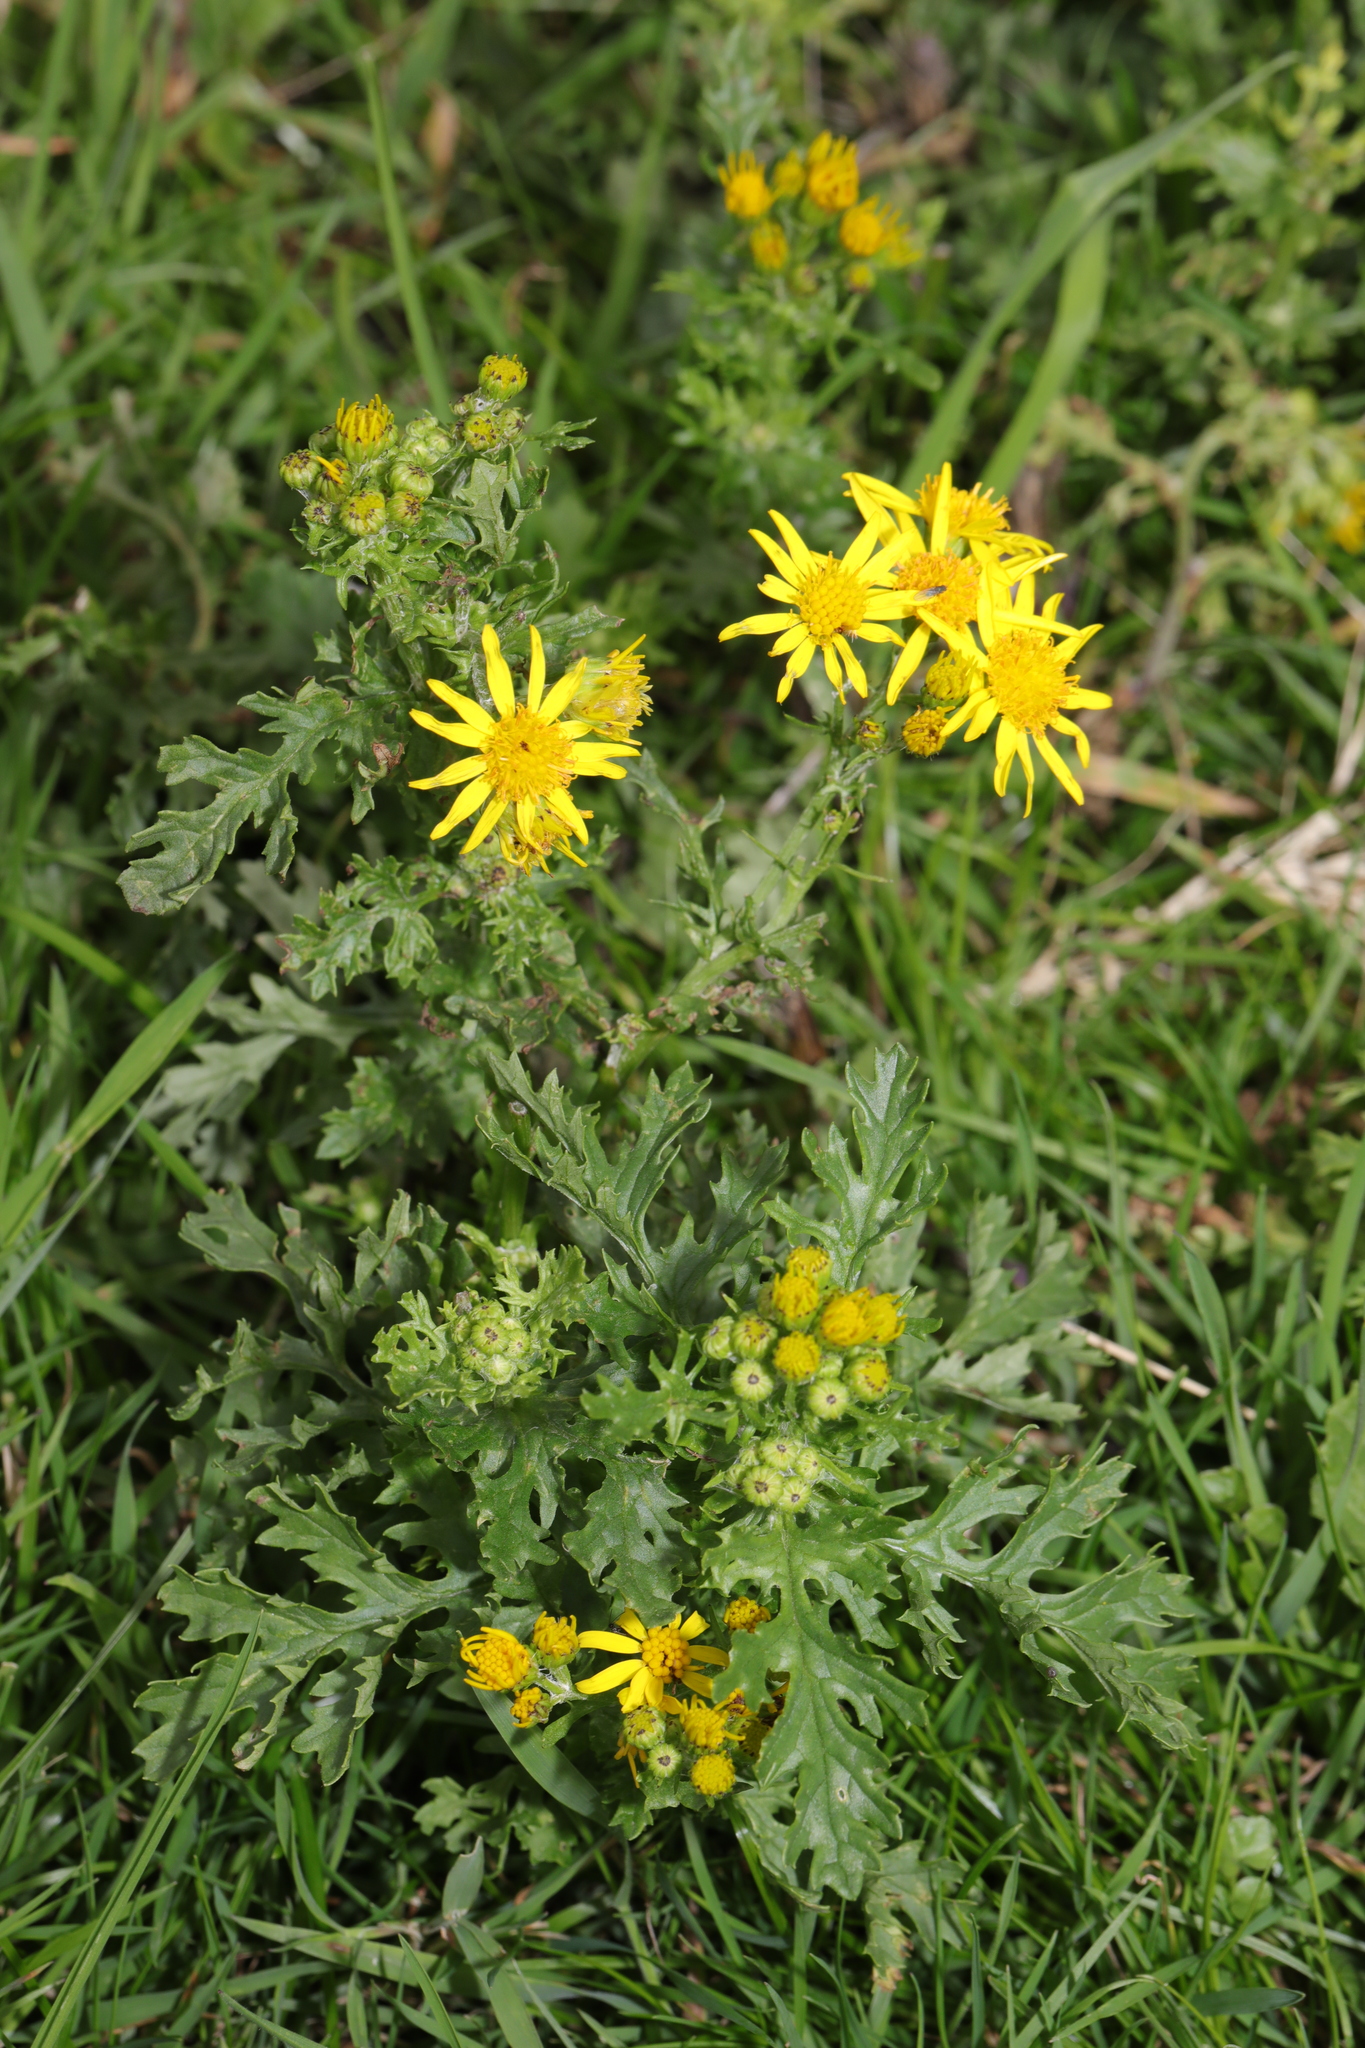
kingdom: Plantae
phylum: Tracheophyta
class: Magnoliopsida
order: Asterales
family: Asteraceae
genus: Jacobaea
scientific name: Jacobaea vulgaris
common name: Stinking willie
